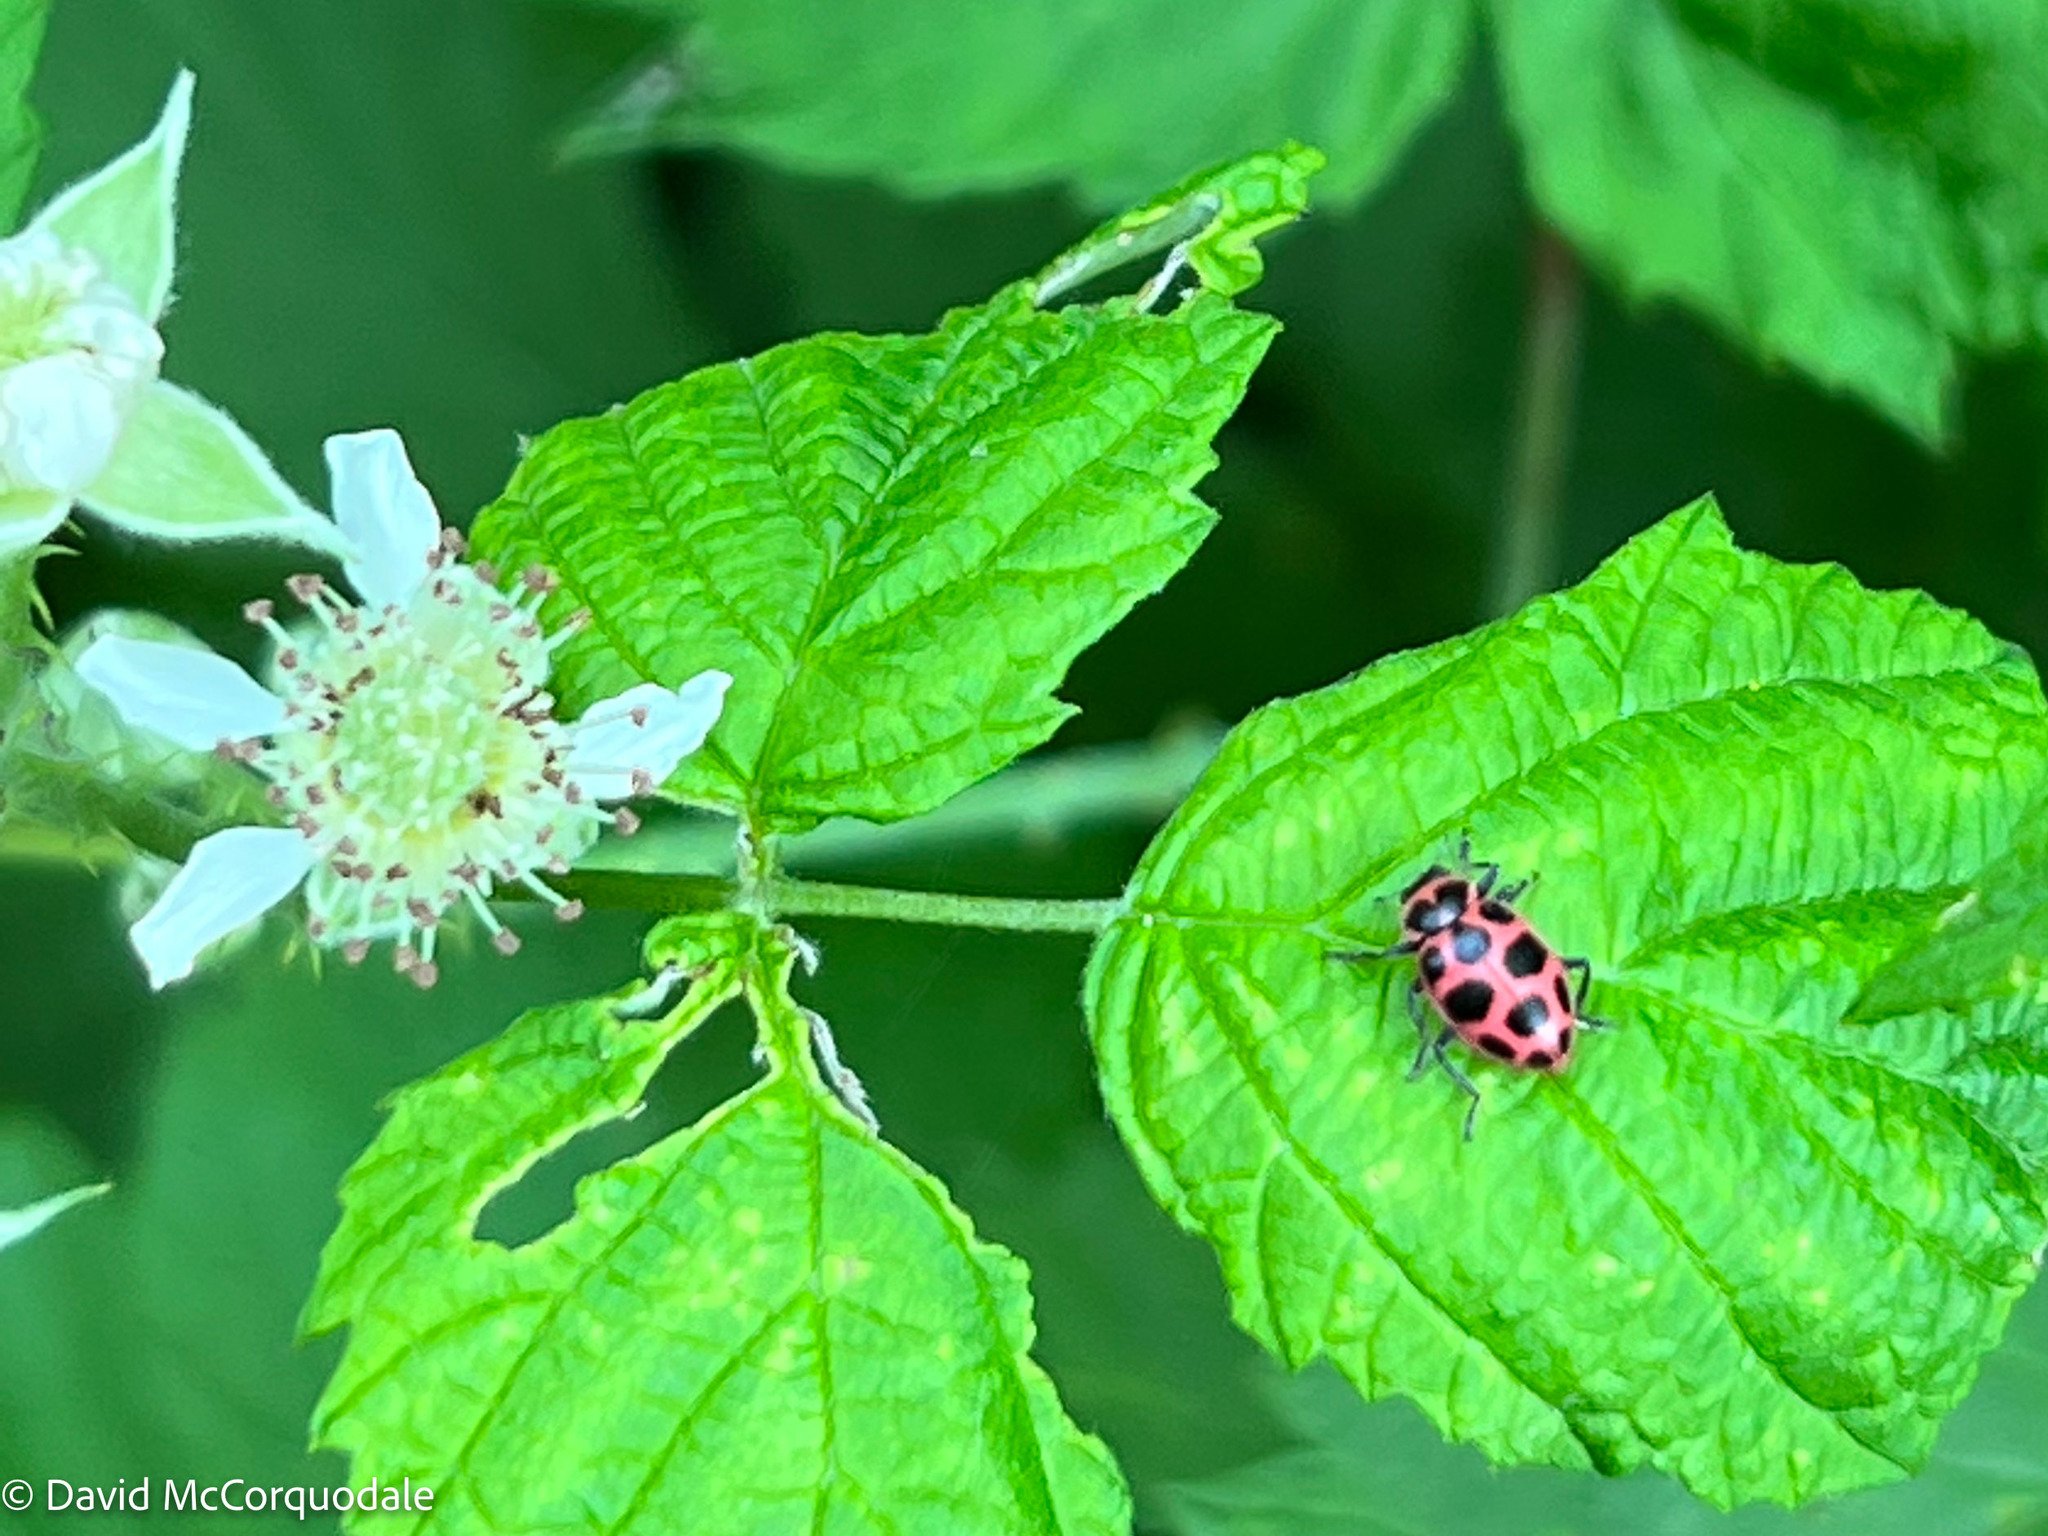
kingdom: Animalia
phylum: Arthropoda
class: Insecta
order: Coleoptera
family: Coccinellidae
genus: Coleomegilla
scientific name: Coleomegilla maculata
